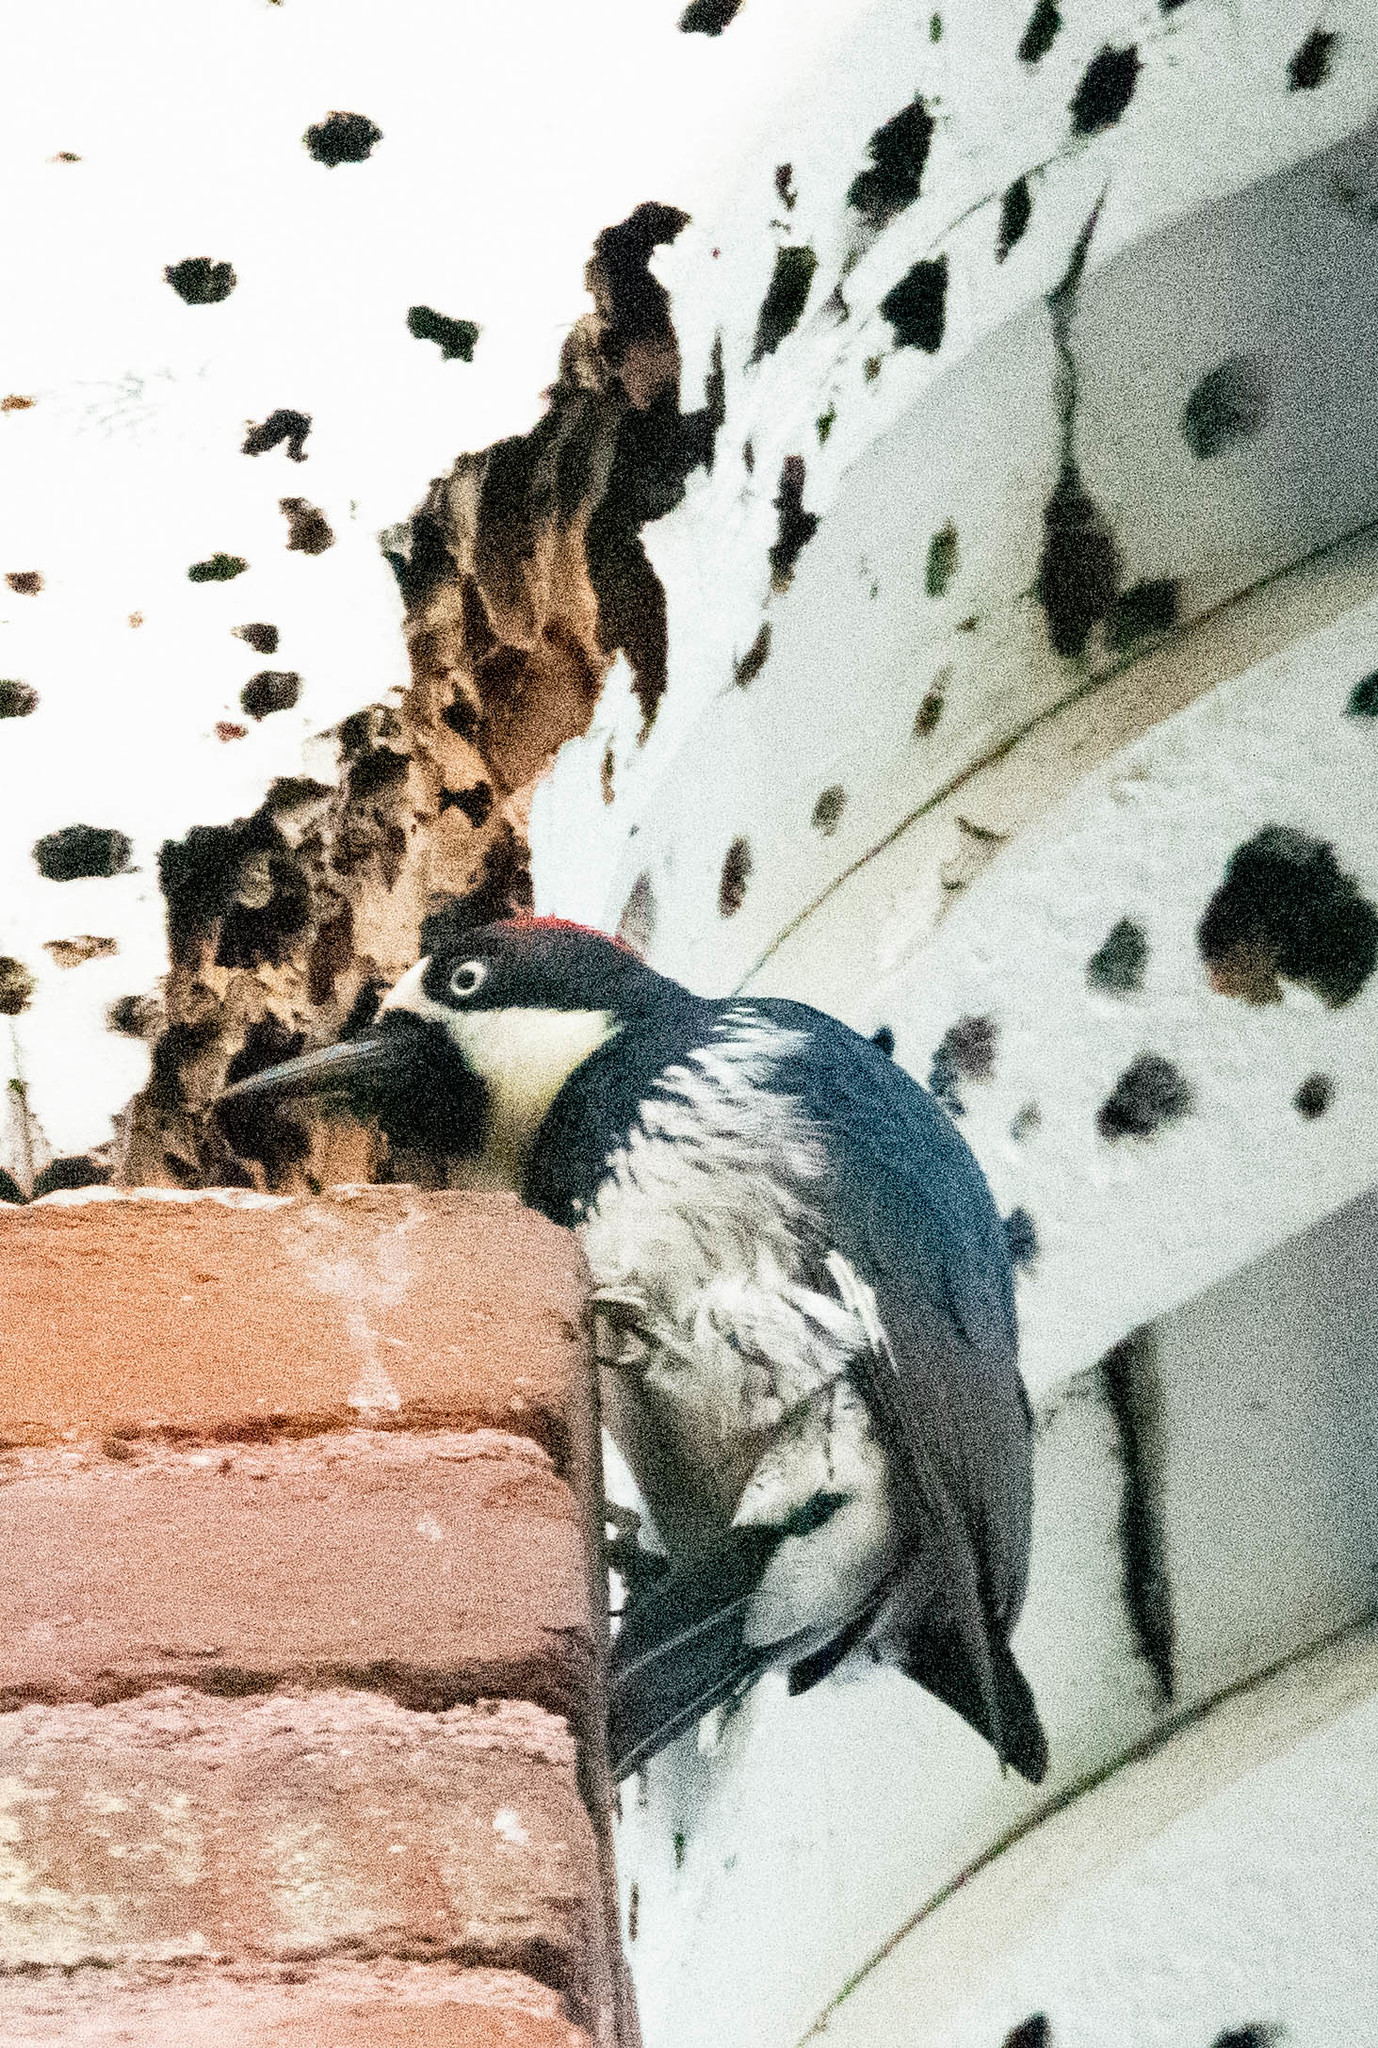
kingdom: Animalia
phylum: Chordata
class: Aves
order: Piciformes
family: Picidae
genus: Melanerpes
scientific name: Melanerpes formicivorus
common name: Acorn woodpecker
